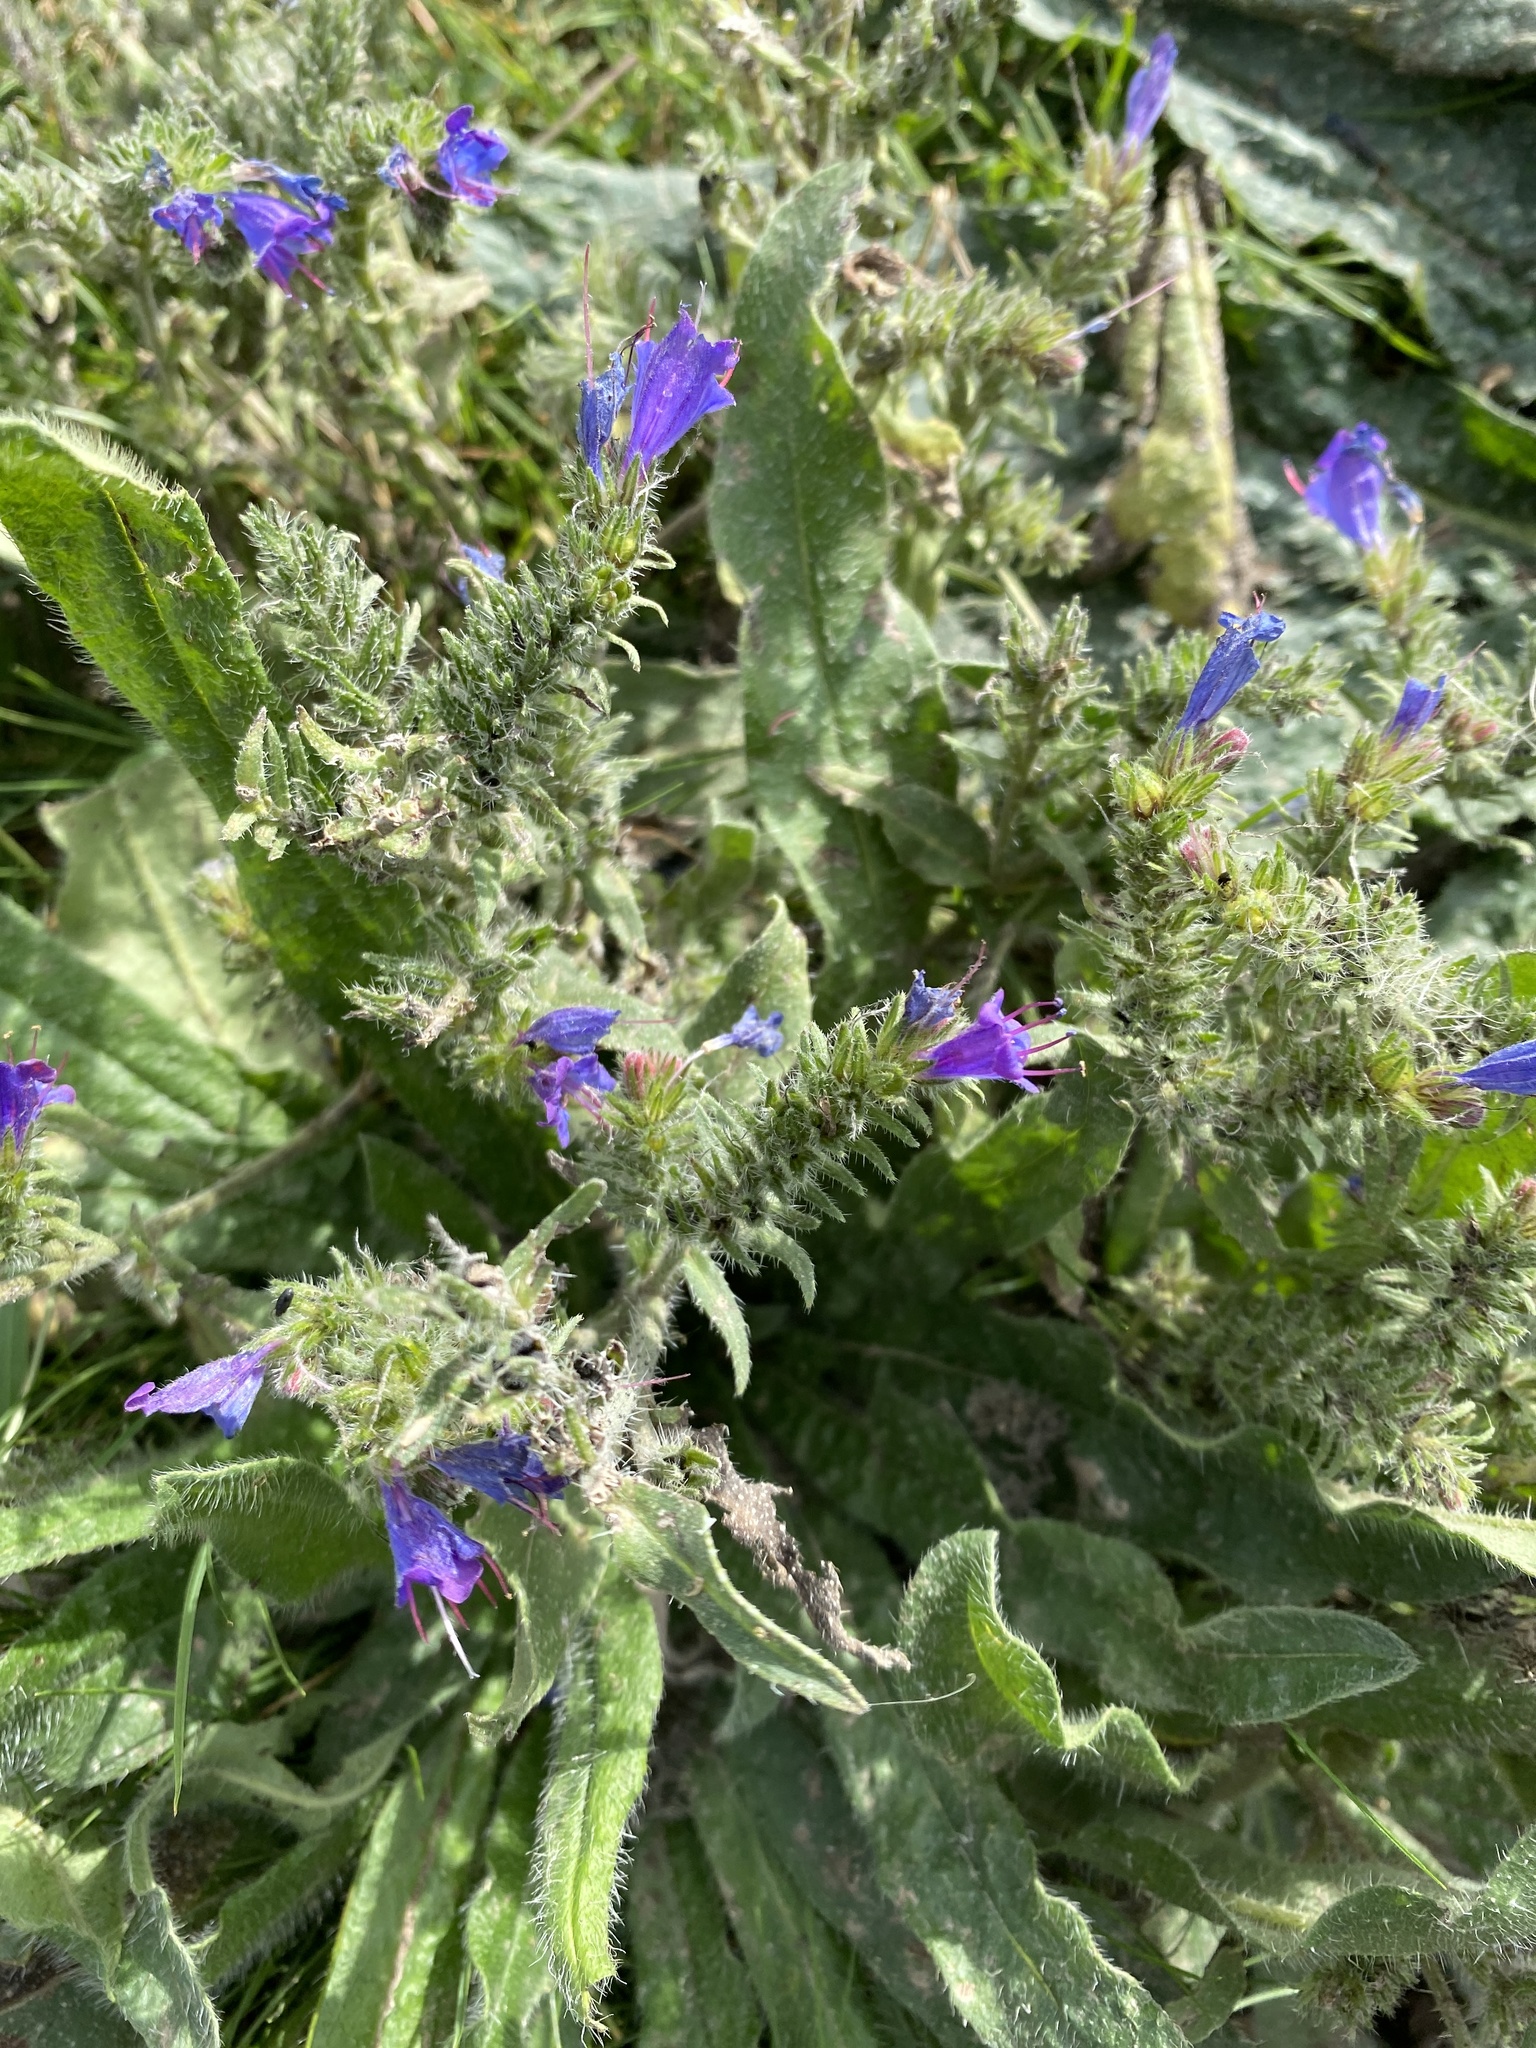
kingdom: Plantae
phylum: Tracheophyta
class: Magnoliopsida
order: Boraginales
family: Boraginaceae
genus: Echium
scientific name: Echium vulgare
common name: Common viper's bugloss
